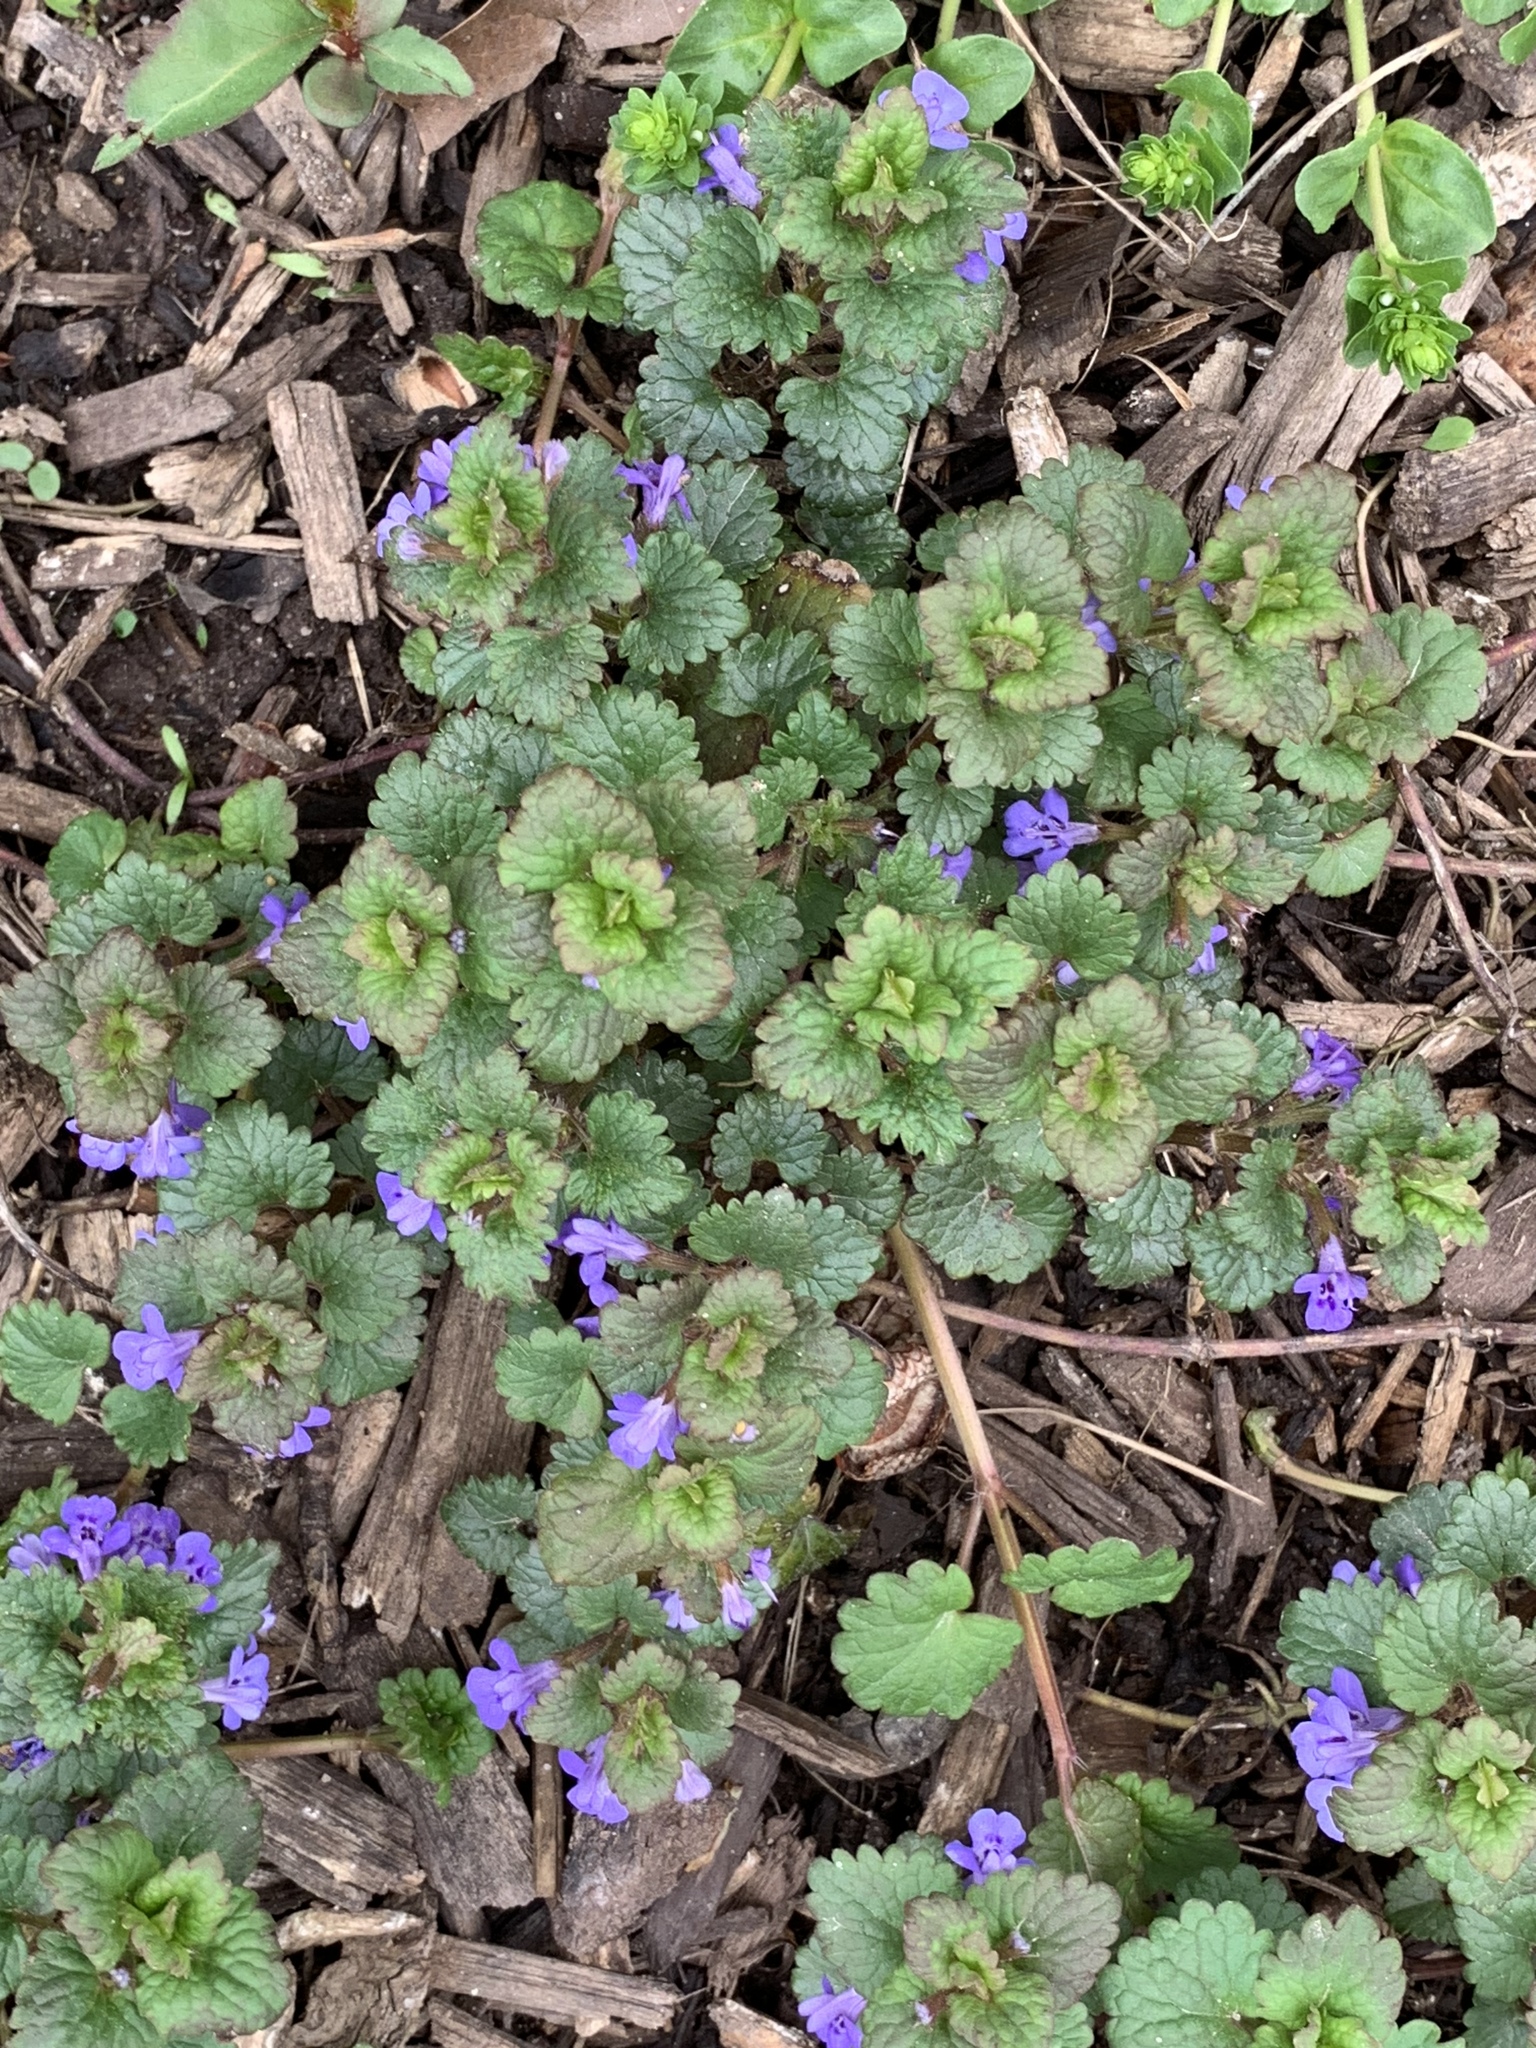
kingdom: Plantae
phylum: Tracheophyta
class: Magnoliopsida
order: Lamiales
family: Lamiaceae
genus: Glechoma
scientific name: Glechoma hederacea
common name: Ground ivy
